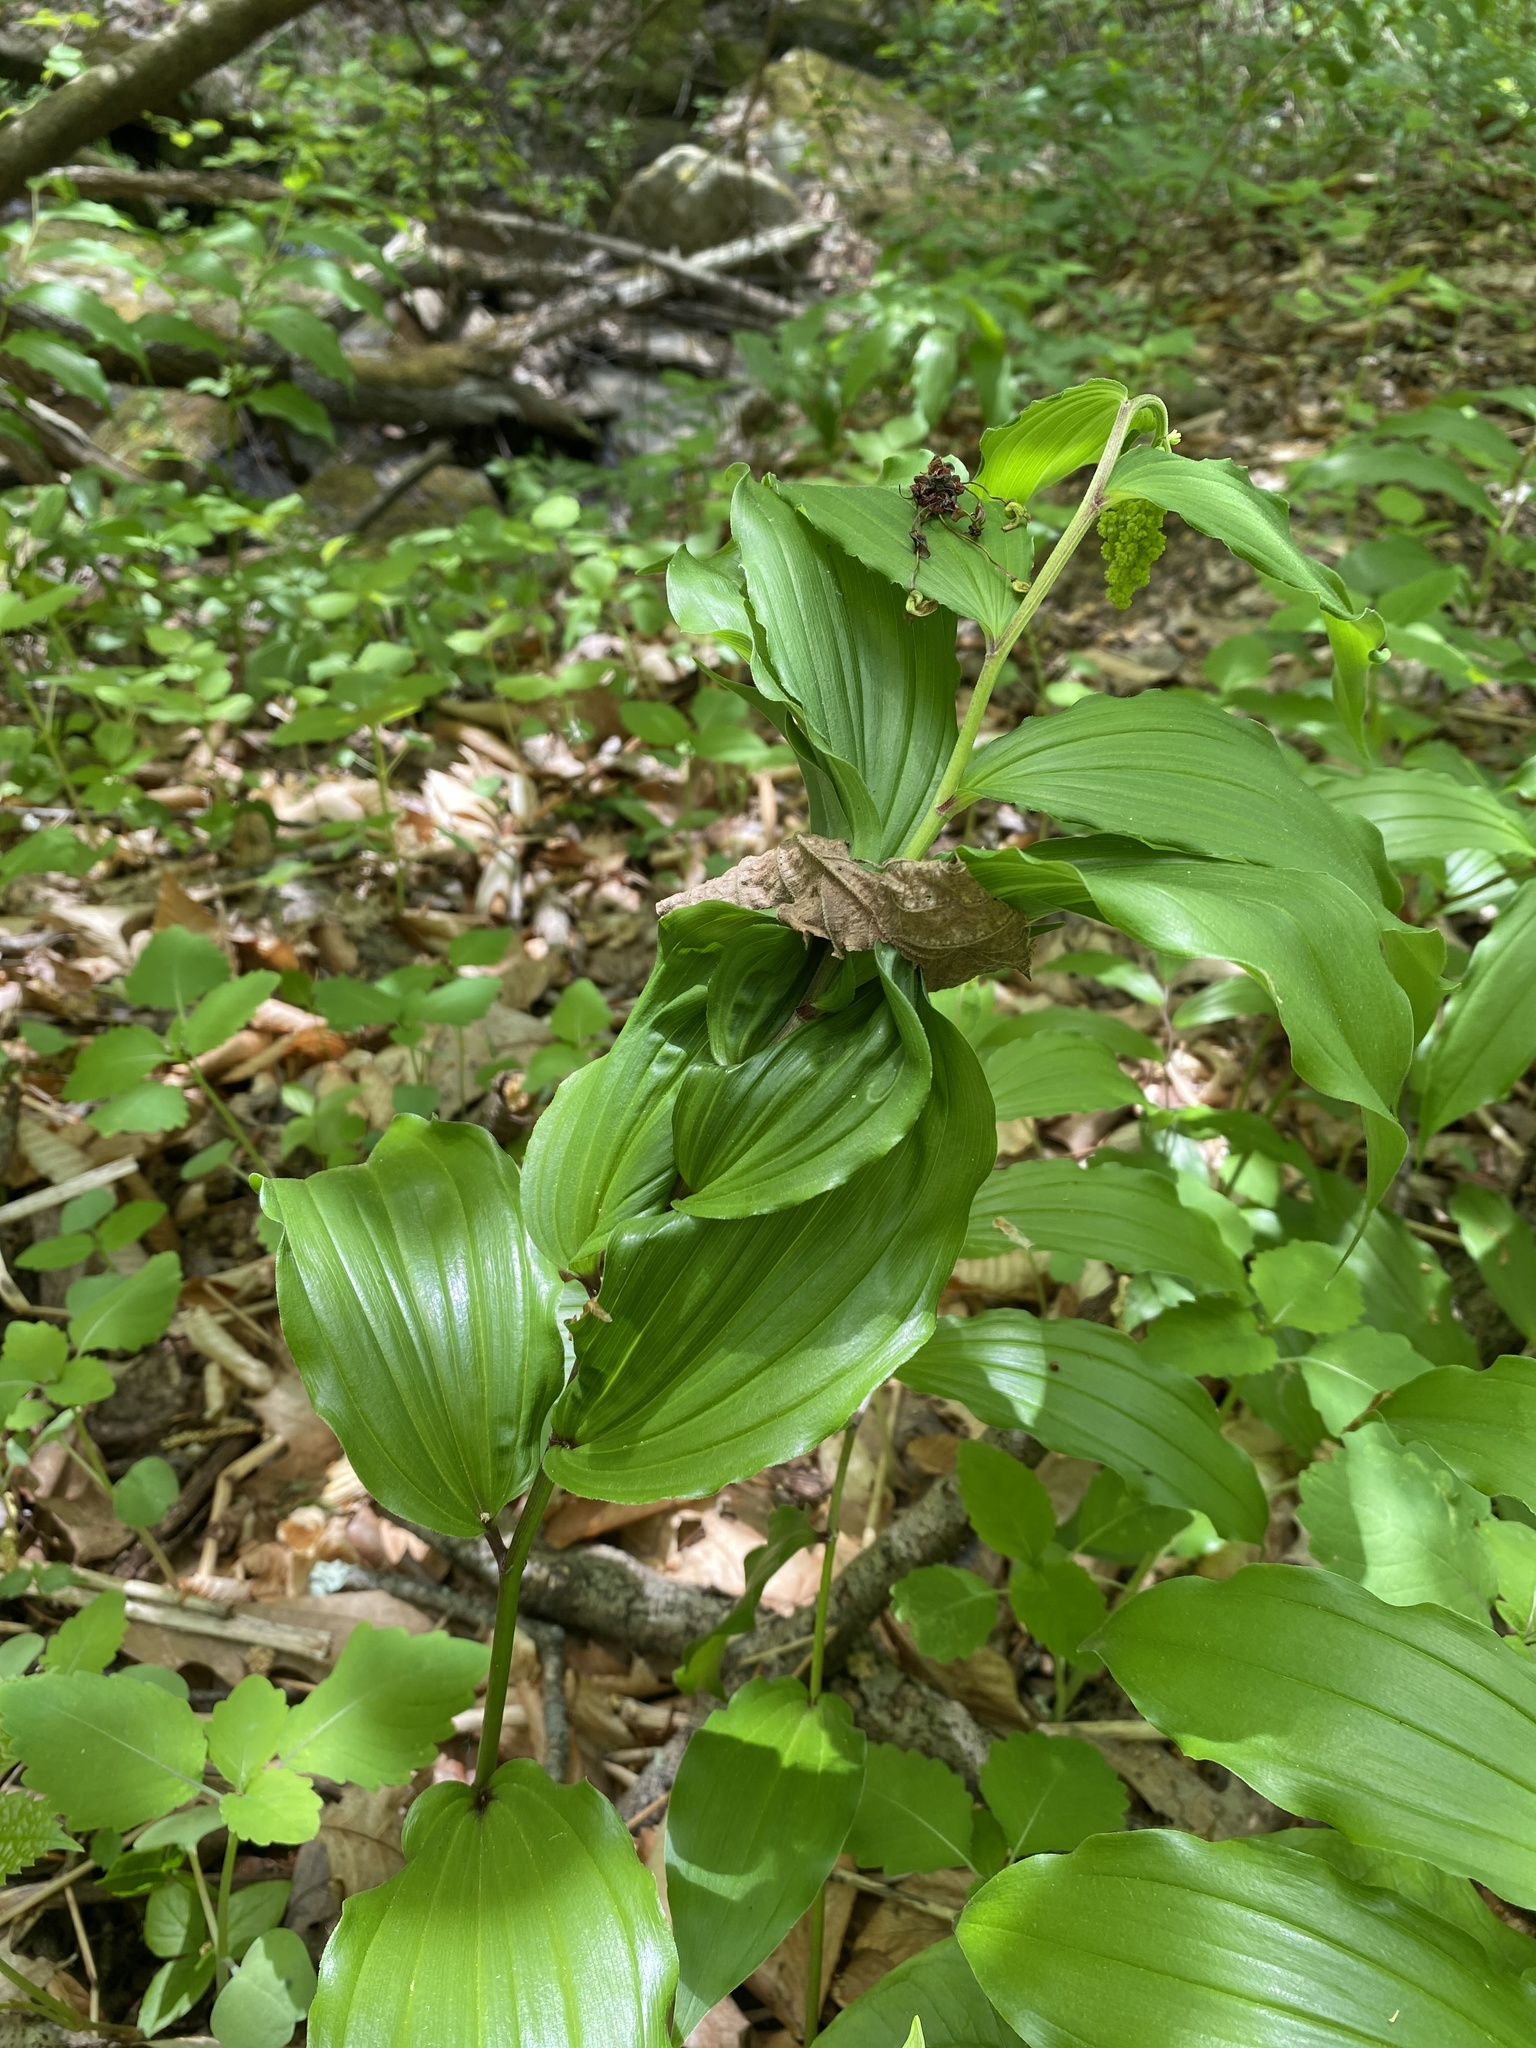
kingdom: Plantae
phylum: Tracheophyta
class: Liliopsida
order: Asparagales
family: Asparagaceae
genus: Maianthemum
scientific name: Maianthemum racemosum
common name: False spikenard
